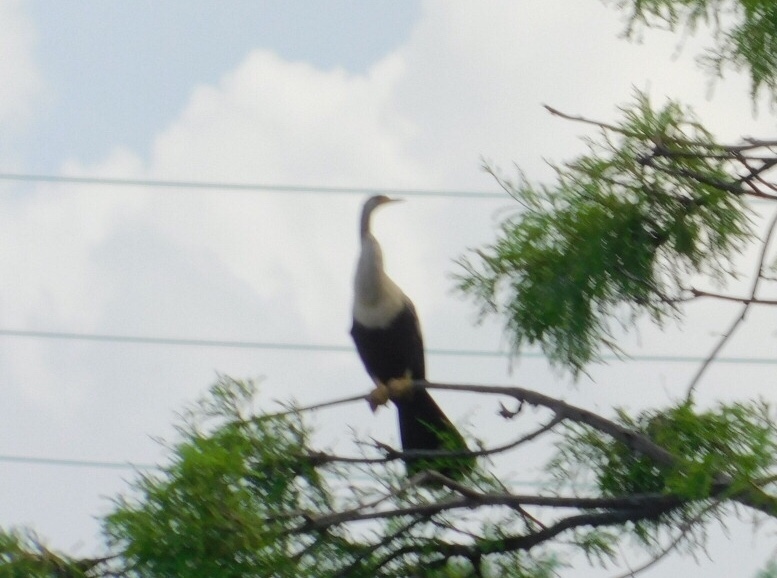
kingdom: Animalia
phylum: Chordata
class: Aves
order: Suliformes
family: Anhingidae
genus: Anhinga
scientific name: Anhinga anhinga
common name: Anhinga
